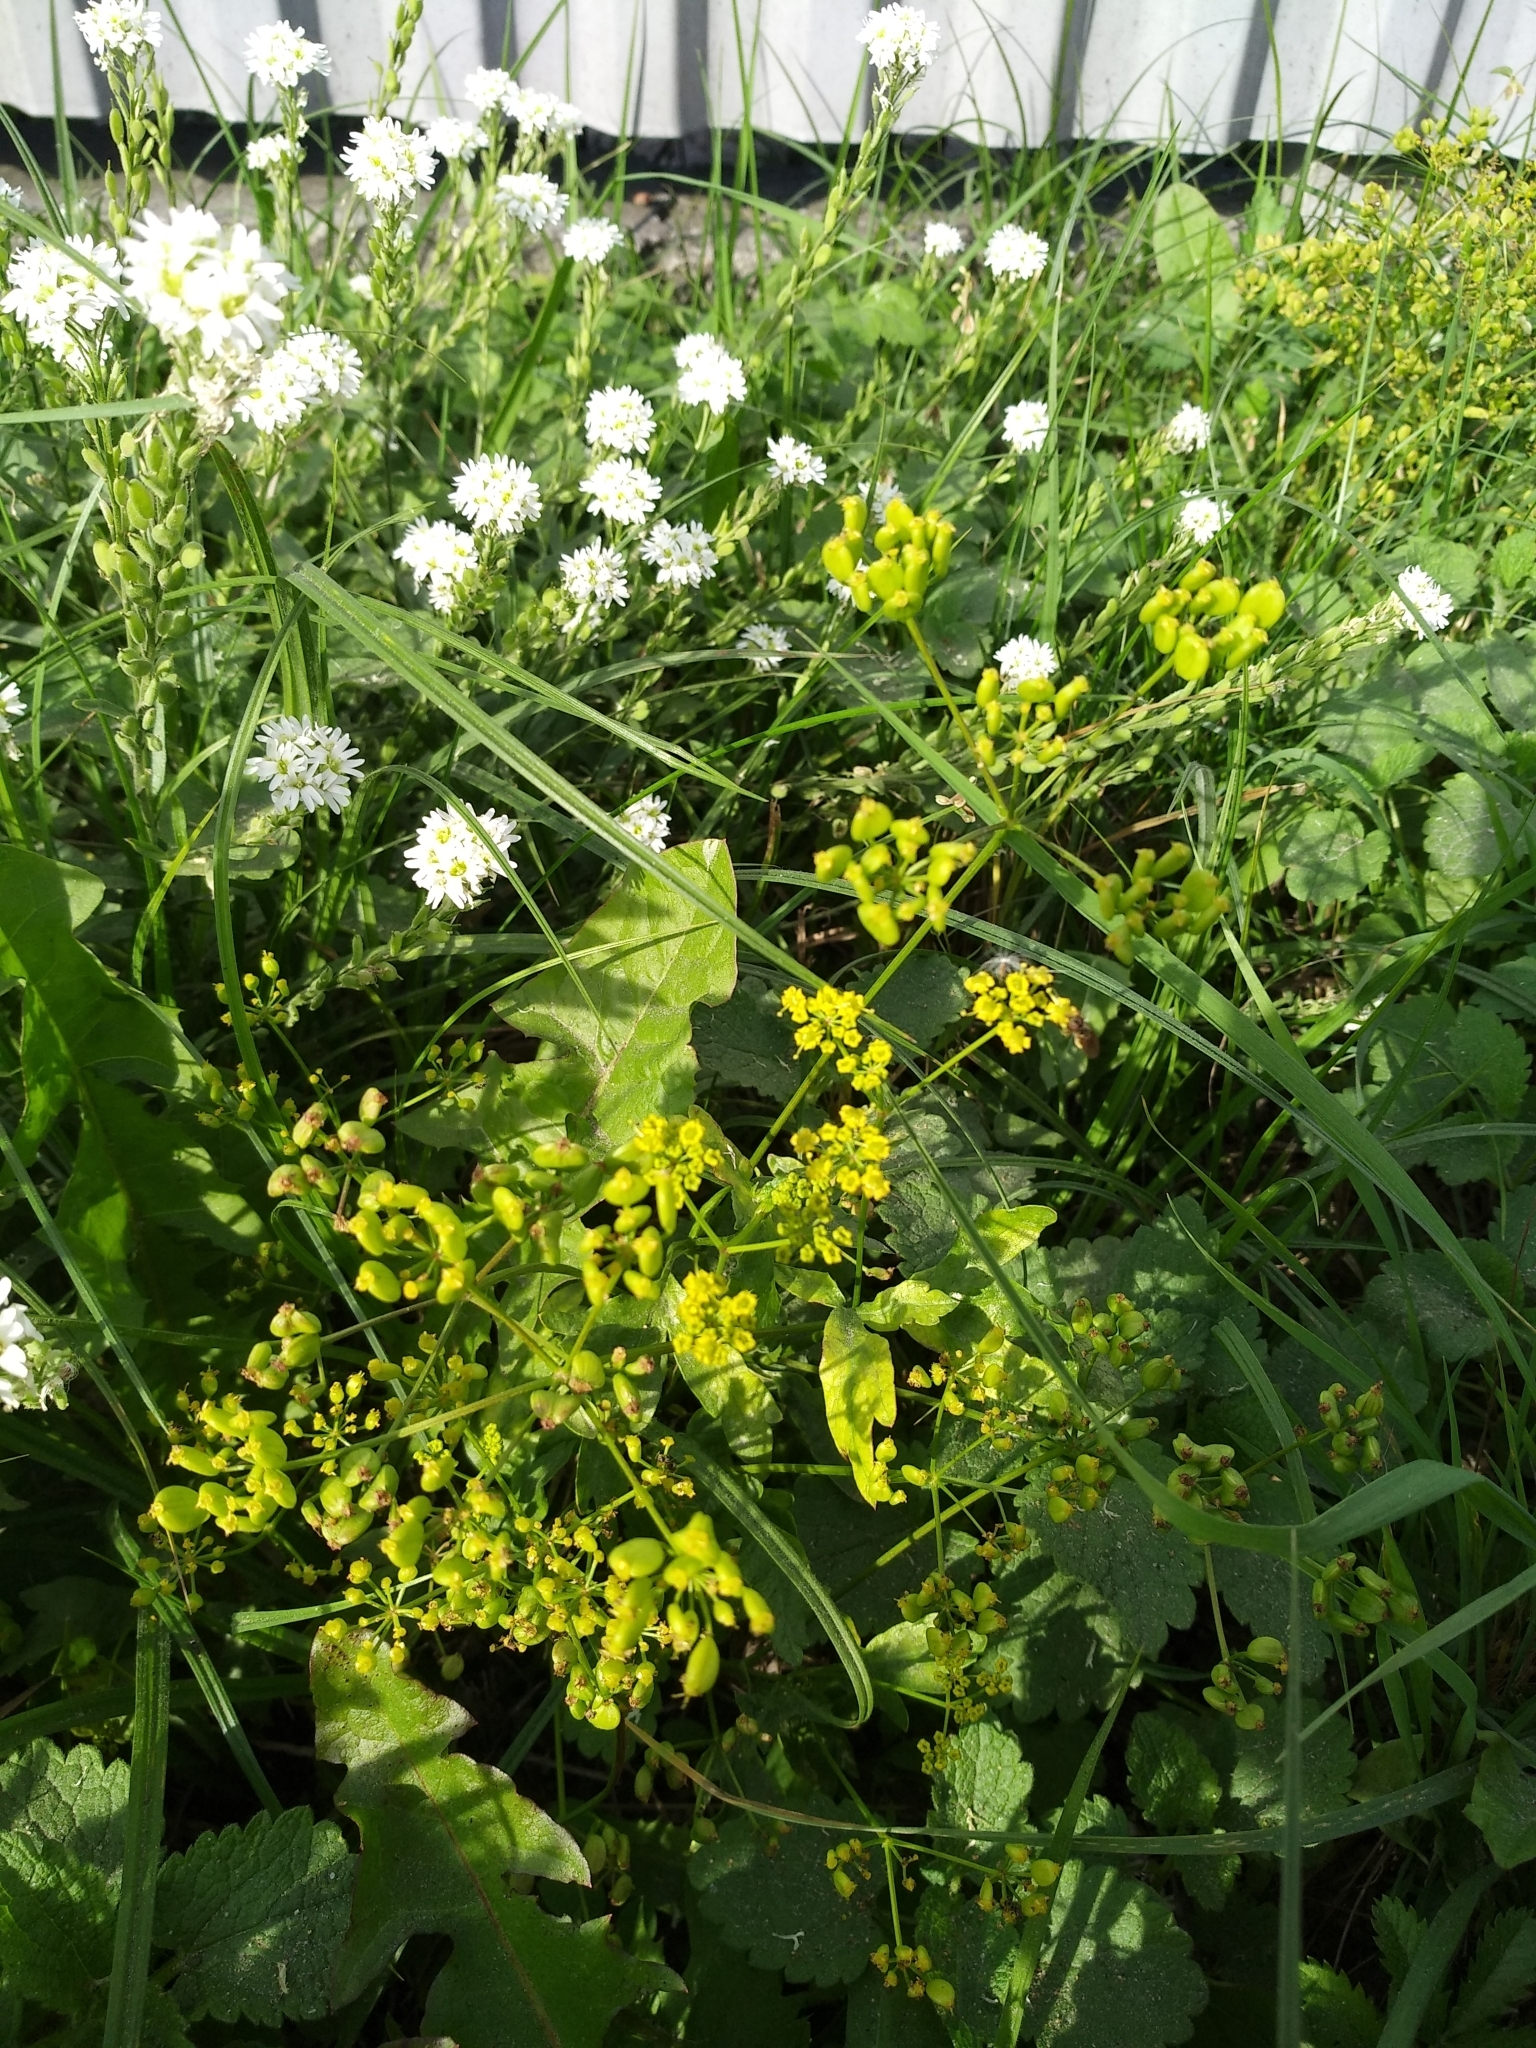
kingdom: Plantae
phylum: Tracheophyta
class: Magnoliopsida
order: Apiales
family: Apiaceae
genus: Pastinaca
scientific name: Pastinaca sativa
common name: Wild parsnip
